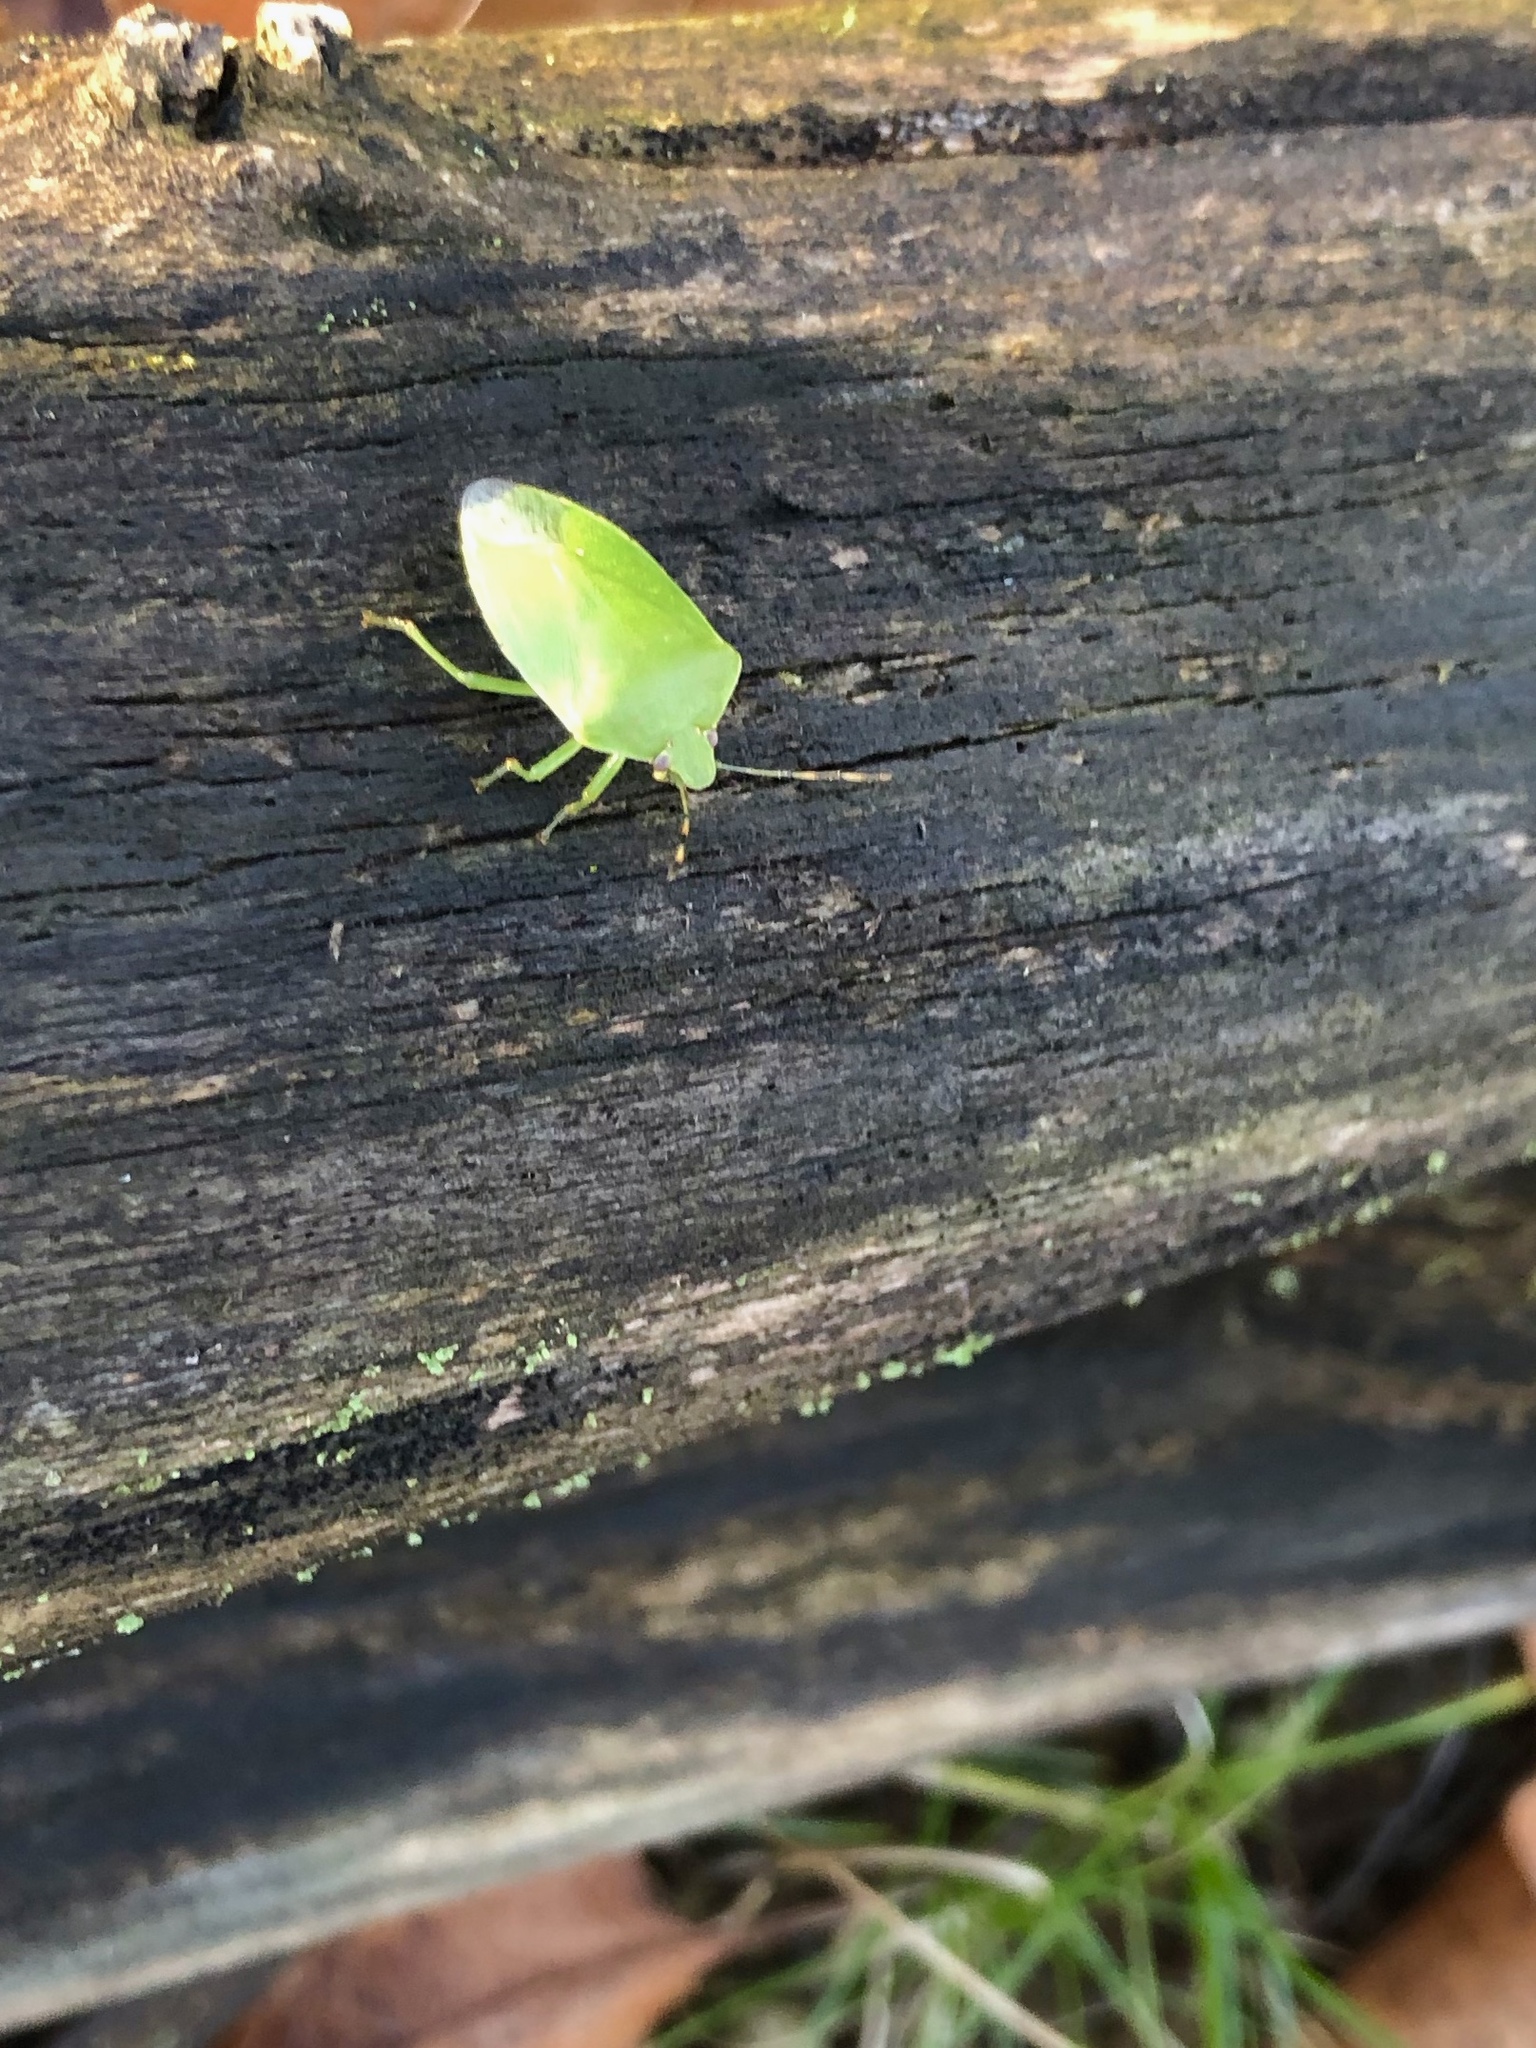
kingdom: Animalia
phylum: Arthropoda
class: Insecta
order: Hemiptera
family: Pentatomidae
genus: Chinavia
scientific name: Chinavia hilaris
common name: Green stink bug
